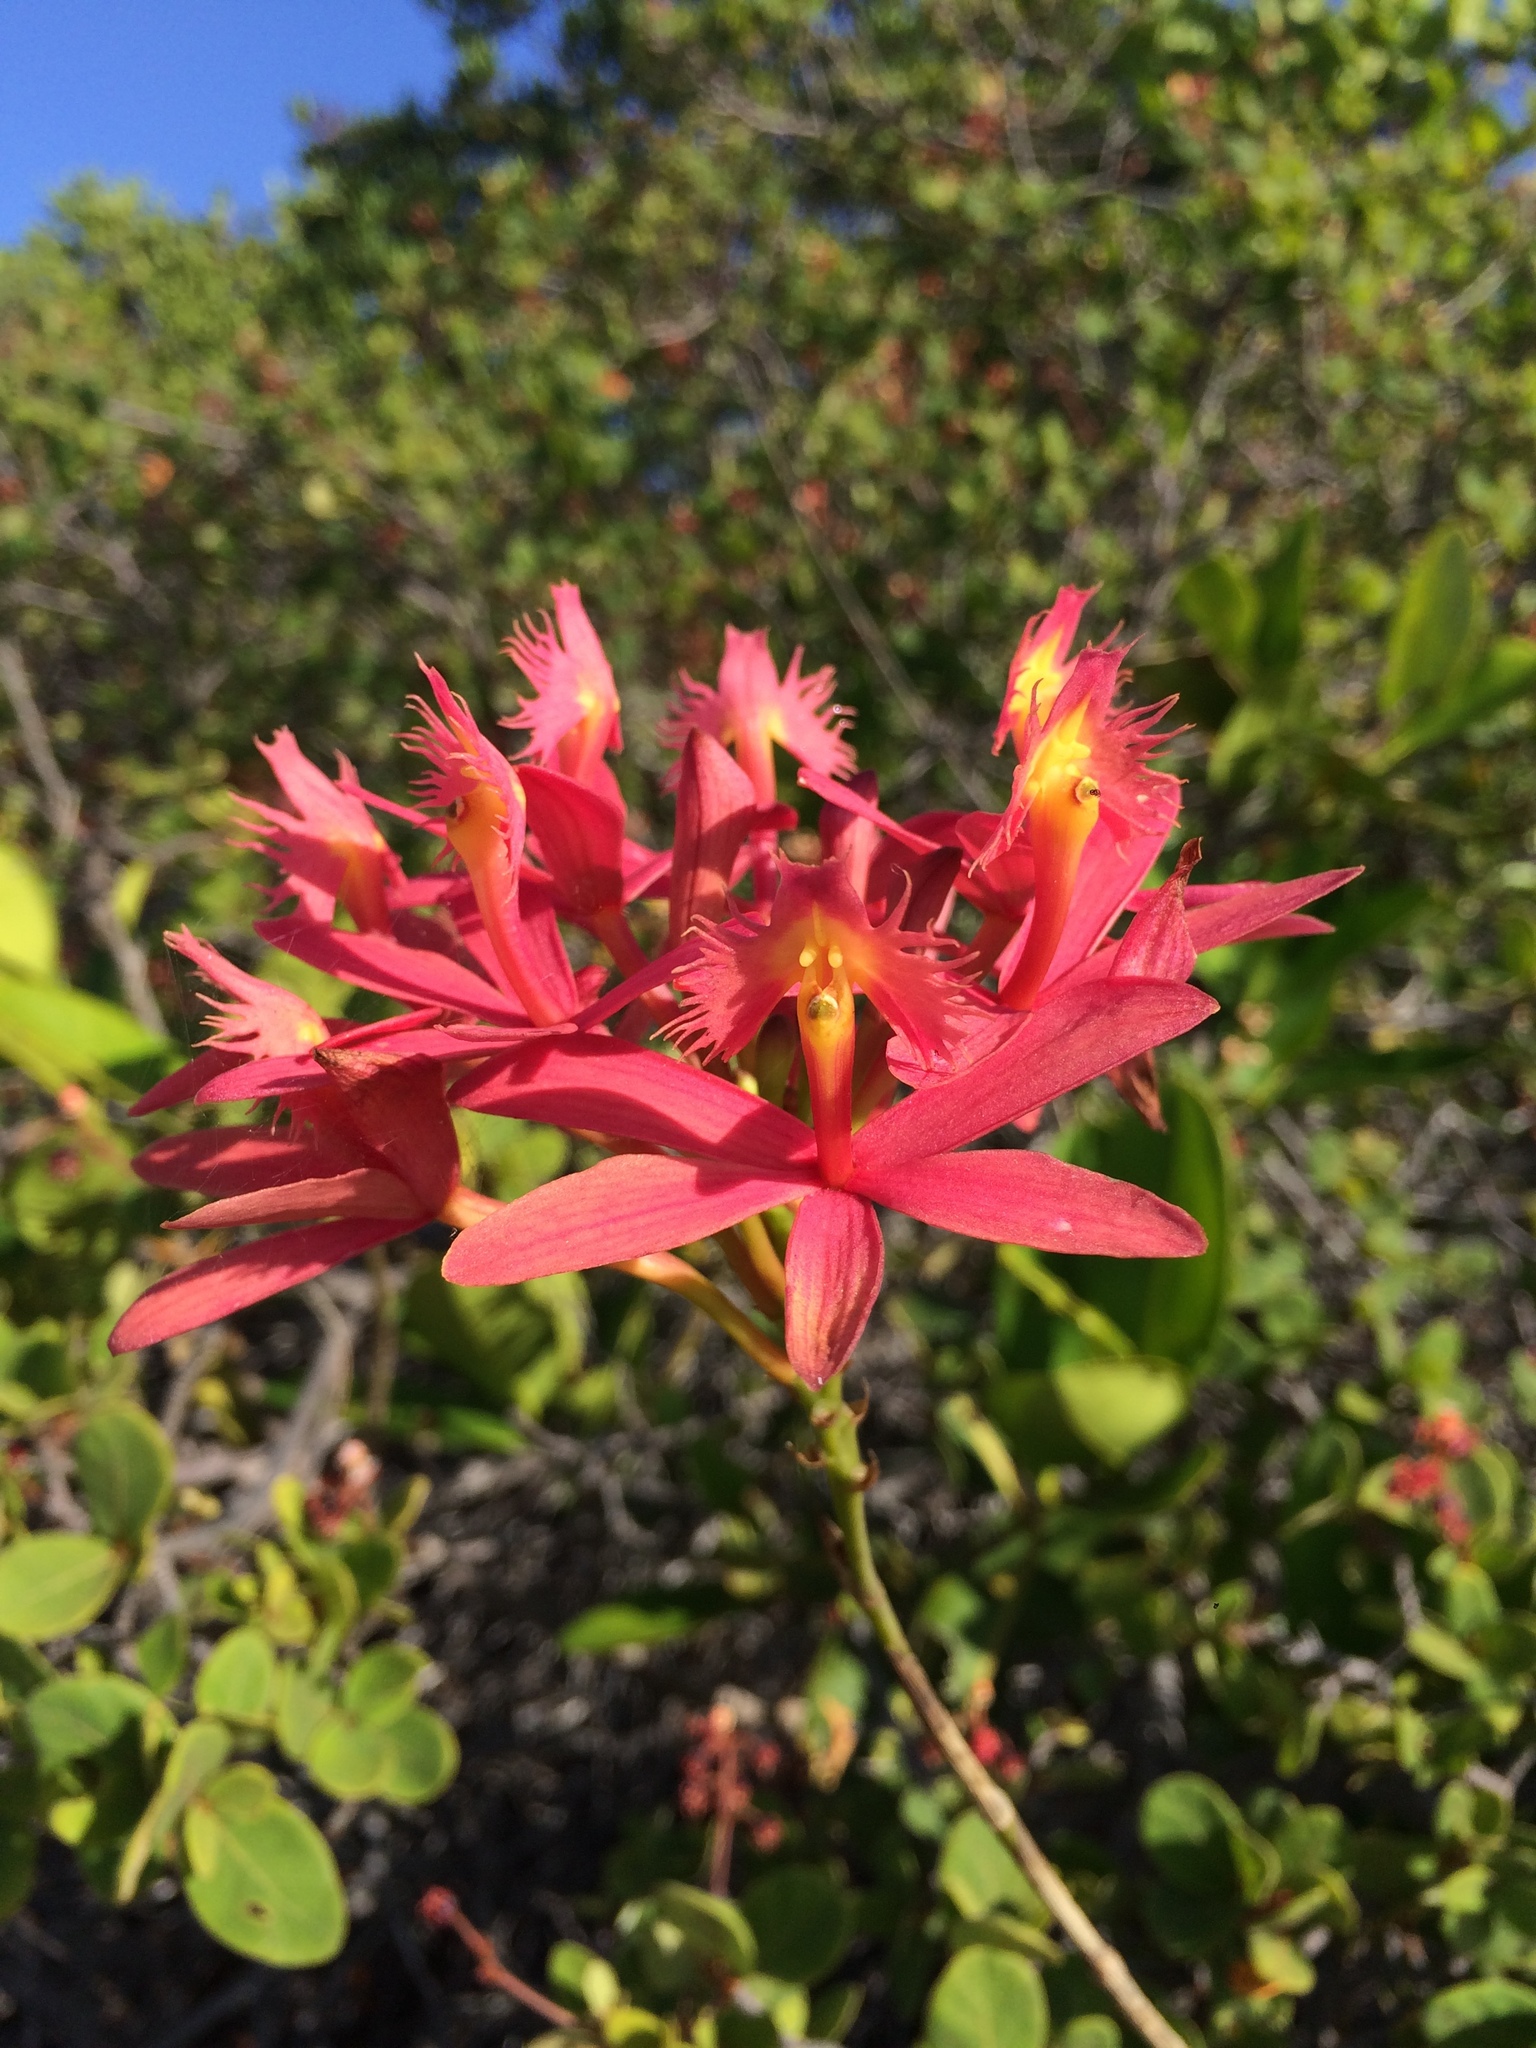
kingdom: Plantae
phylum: Tracheophyta
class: Liliopsida
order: Asparagales
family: Orchidaceae
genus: Epidendrum
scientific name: Epidendrum cinnabarinum
